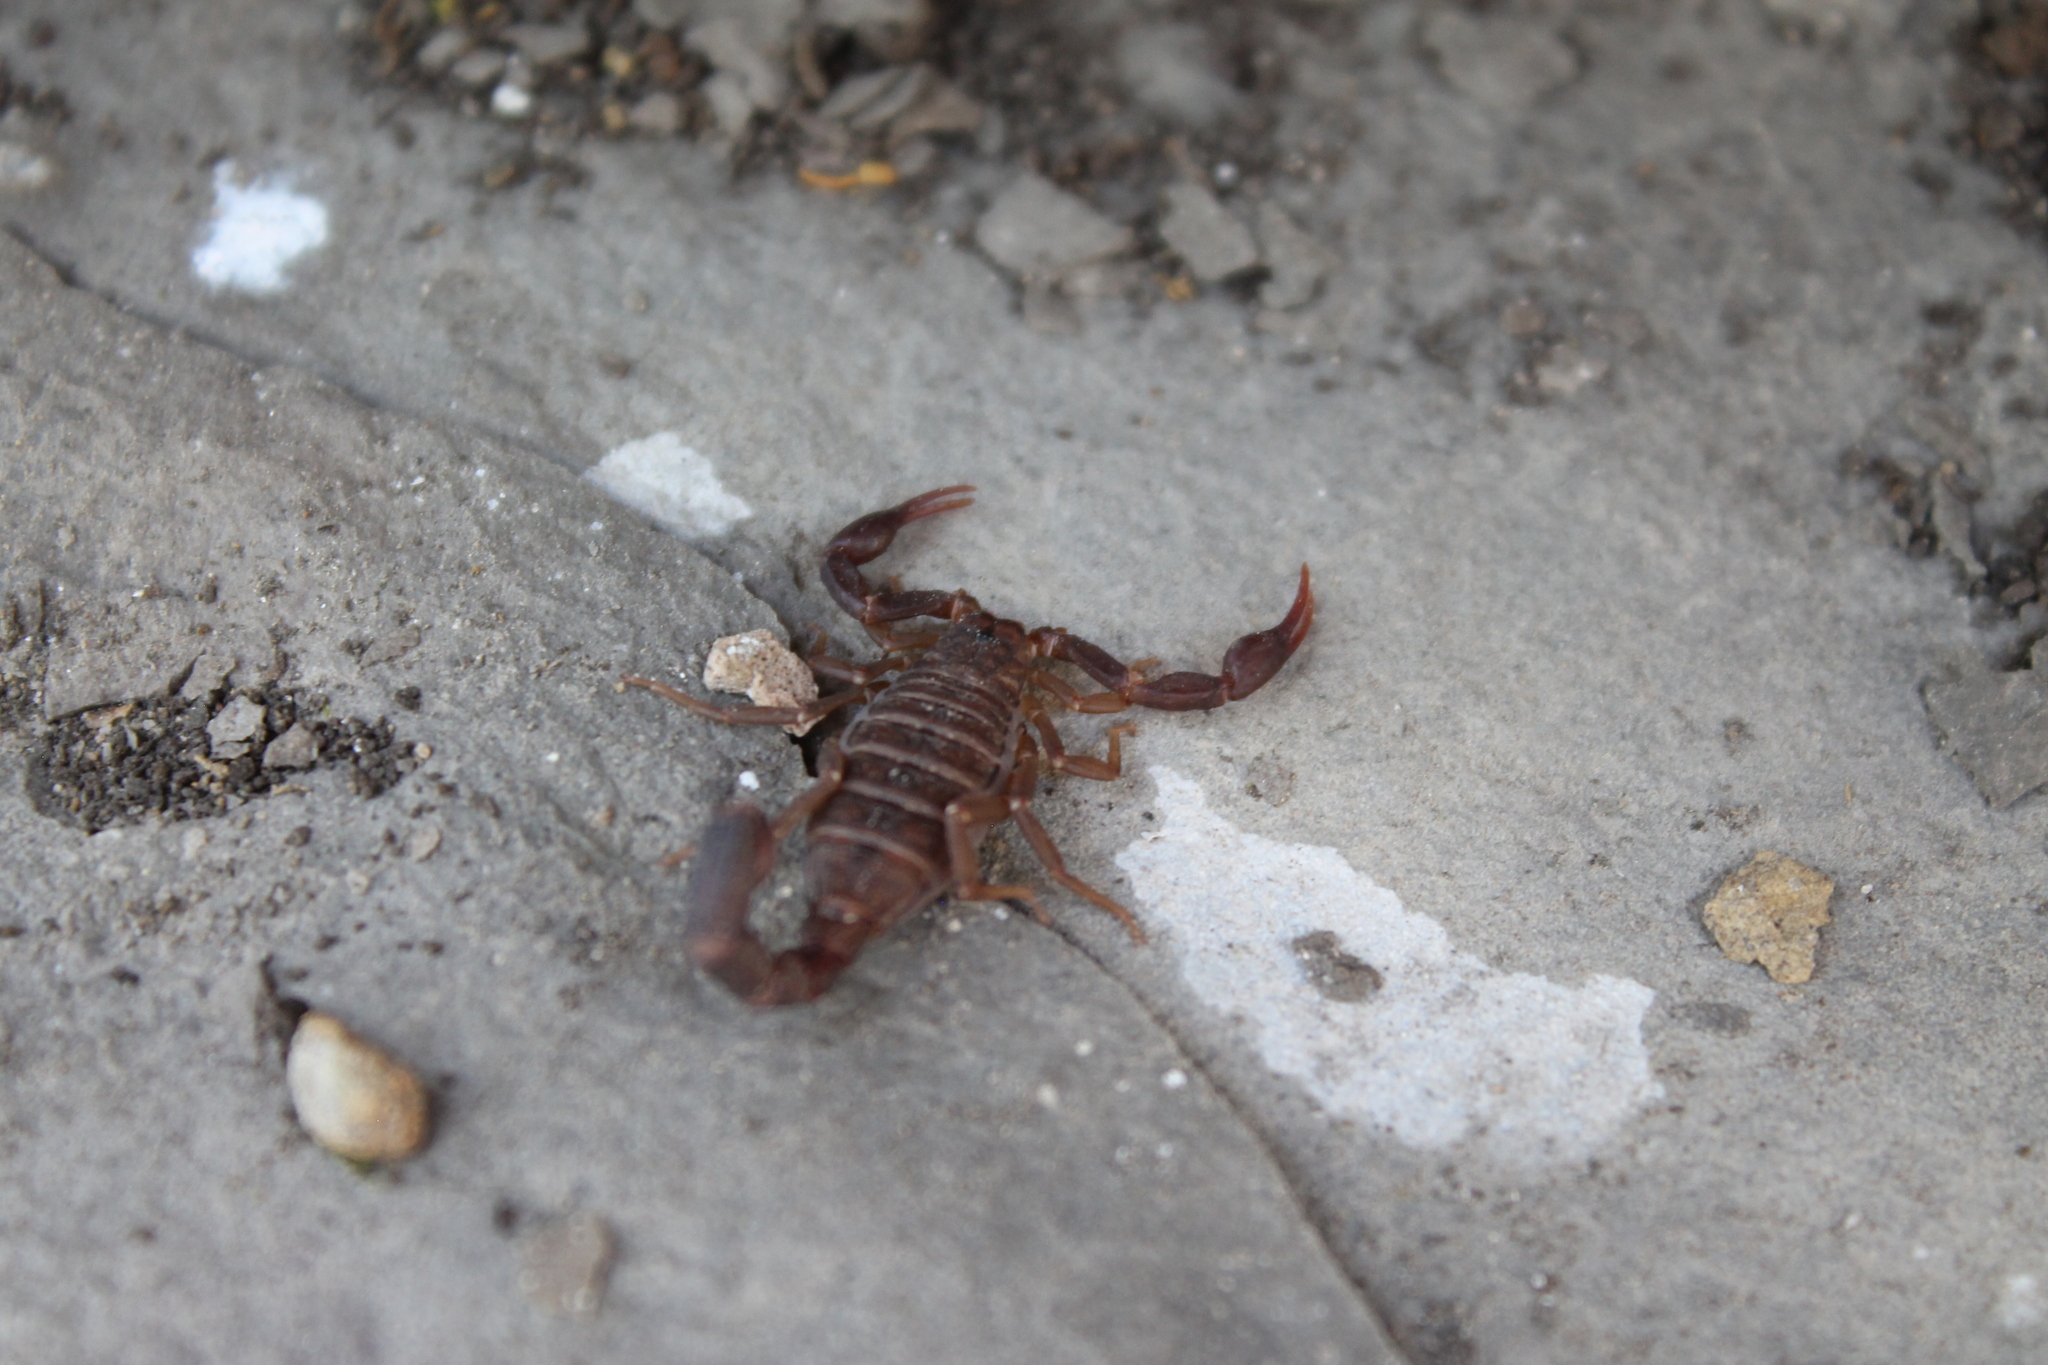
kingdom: Animalia
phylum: Arthropoda
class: Arachnida
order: Scorpiones
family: Vaejovidae
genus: Vaejovis
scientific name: Vaejovis carolinianus
